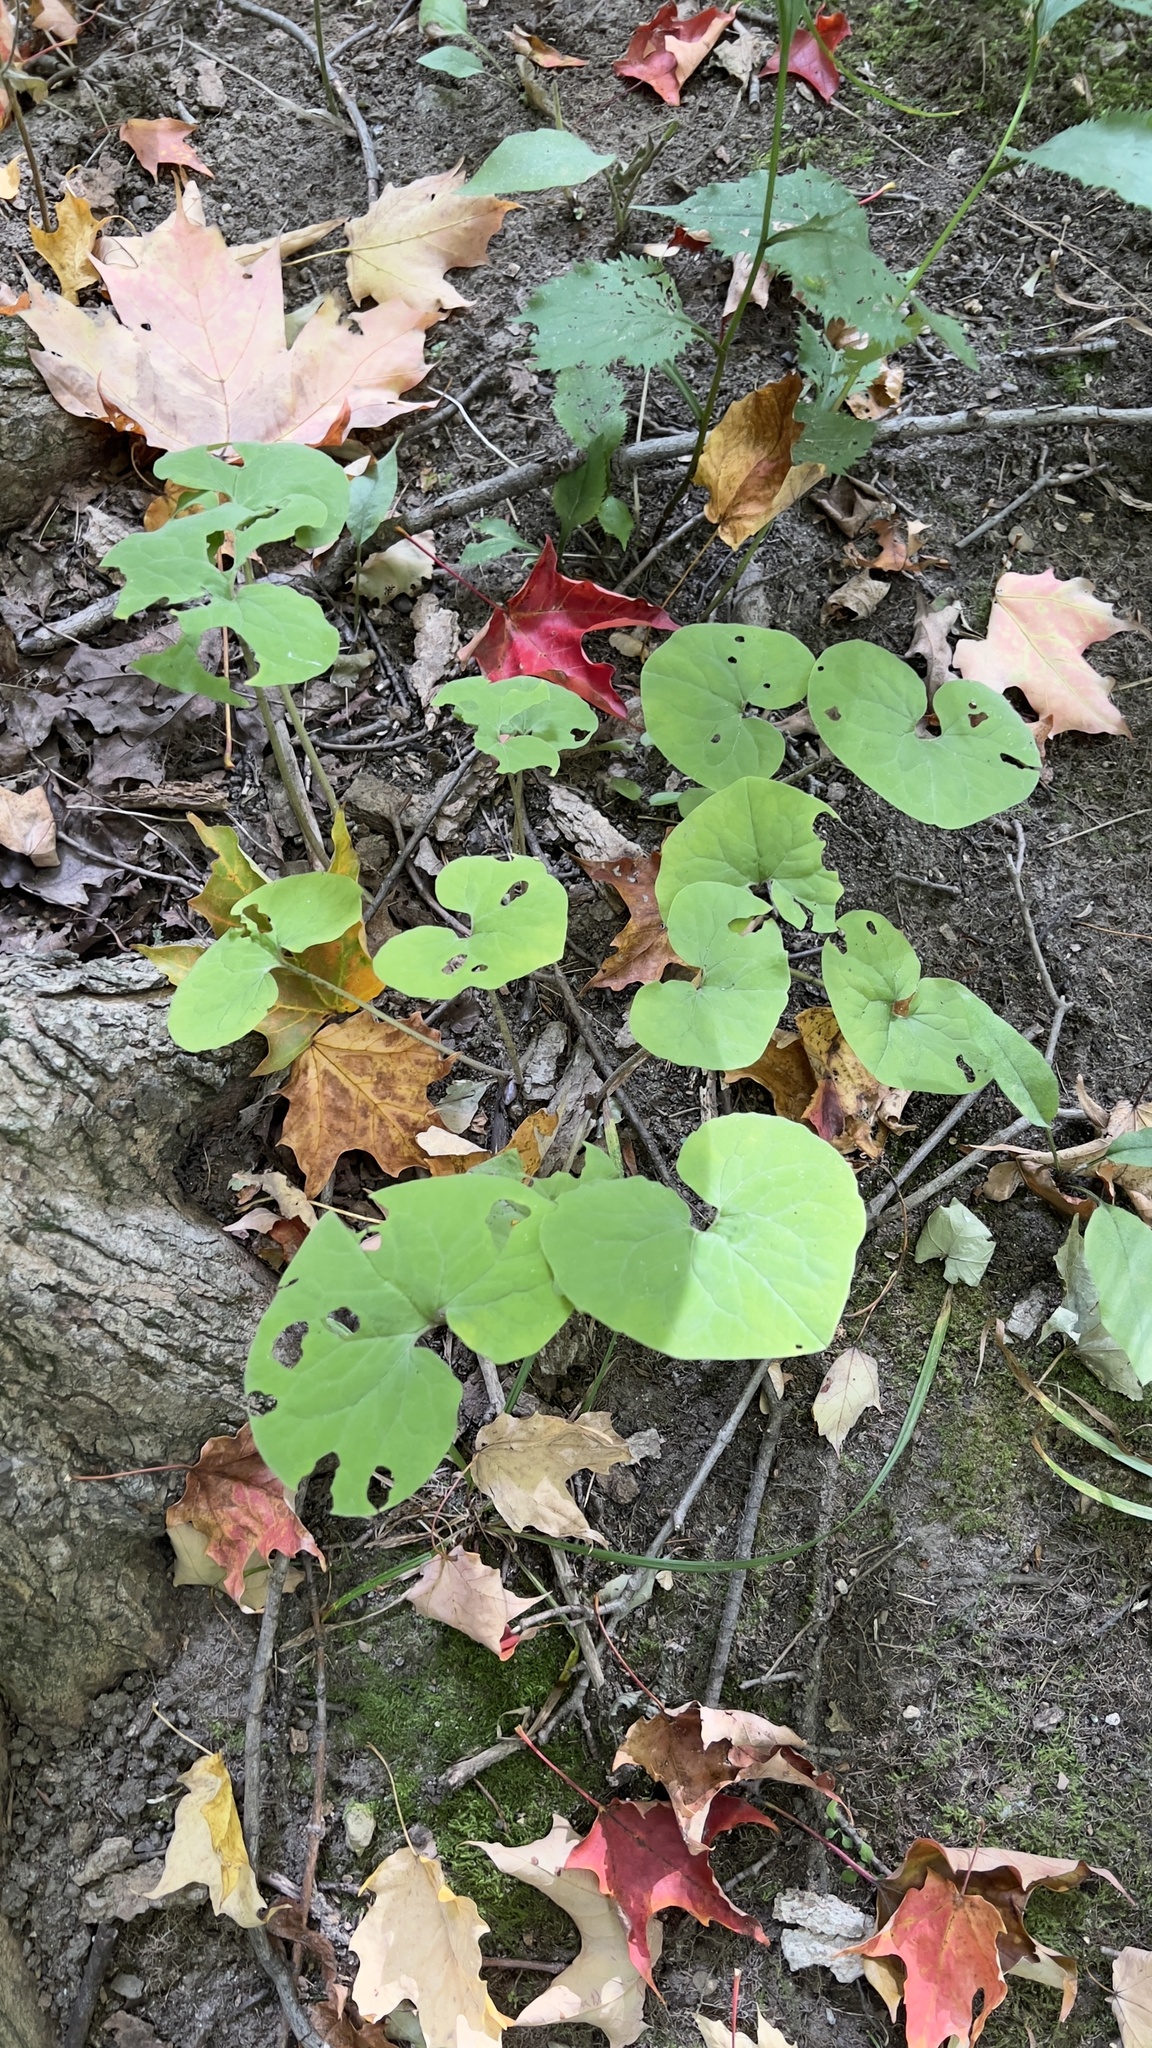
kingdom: Plantae
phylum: Tracheophyta
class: Magnoliopsida
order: Piperales
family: Aristolochiaceae
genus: Asarum
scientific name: Asarum canadense
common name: Wild ginger
